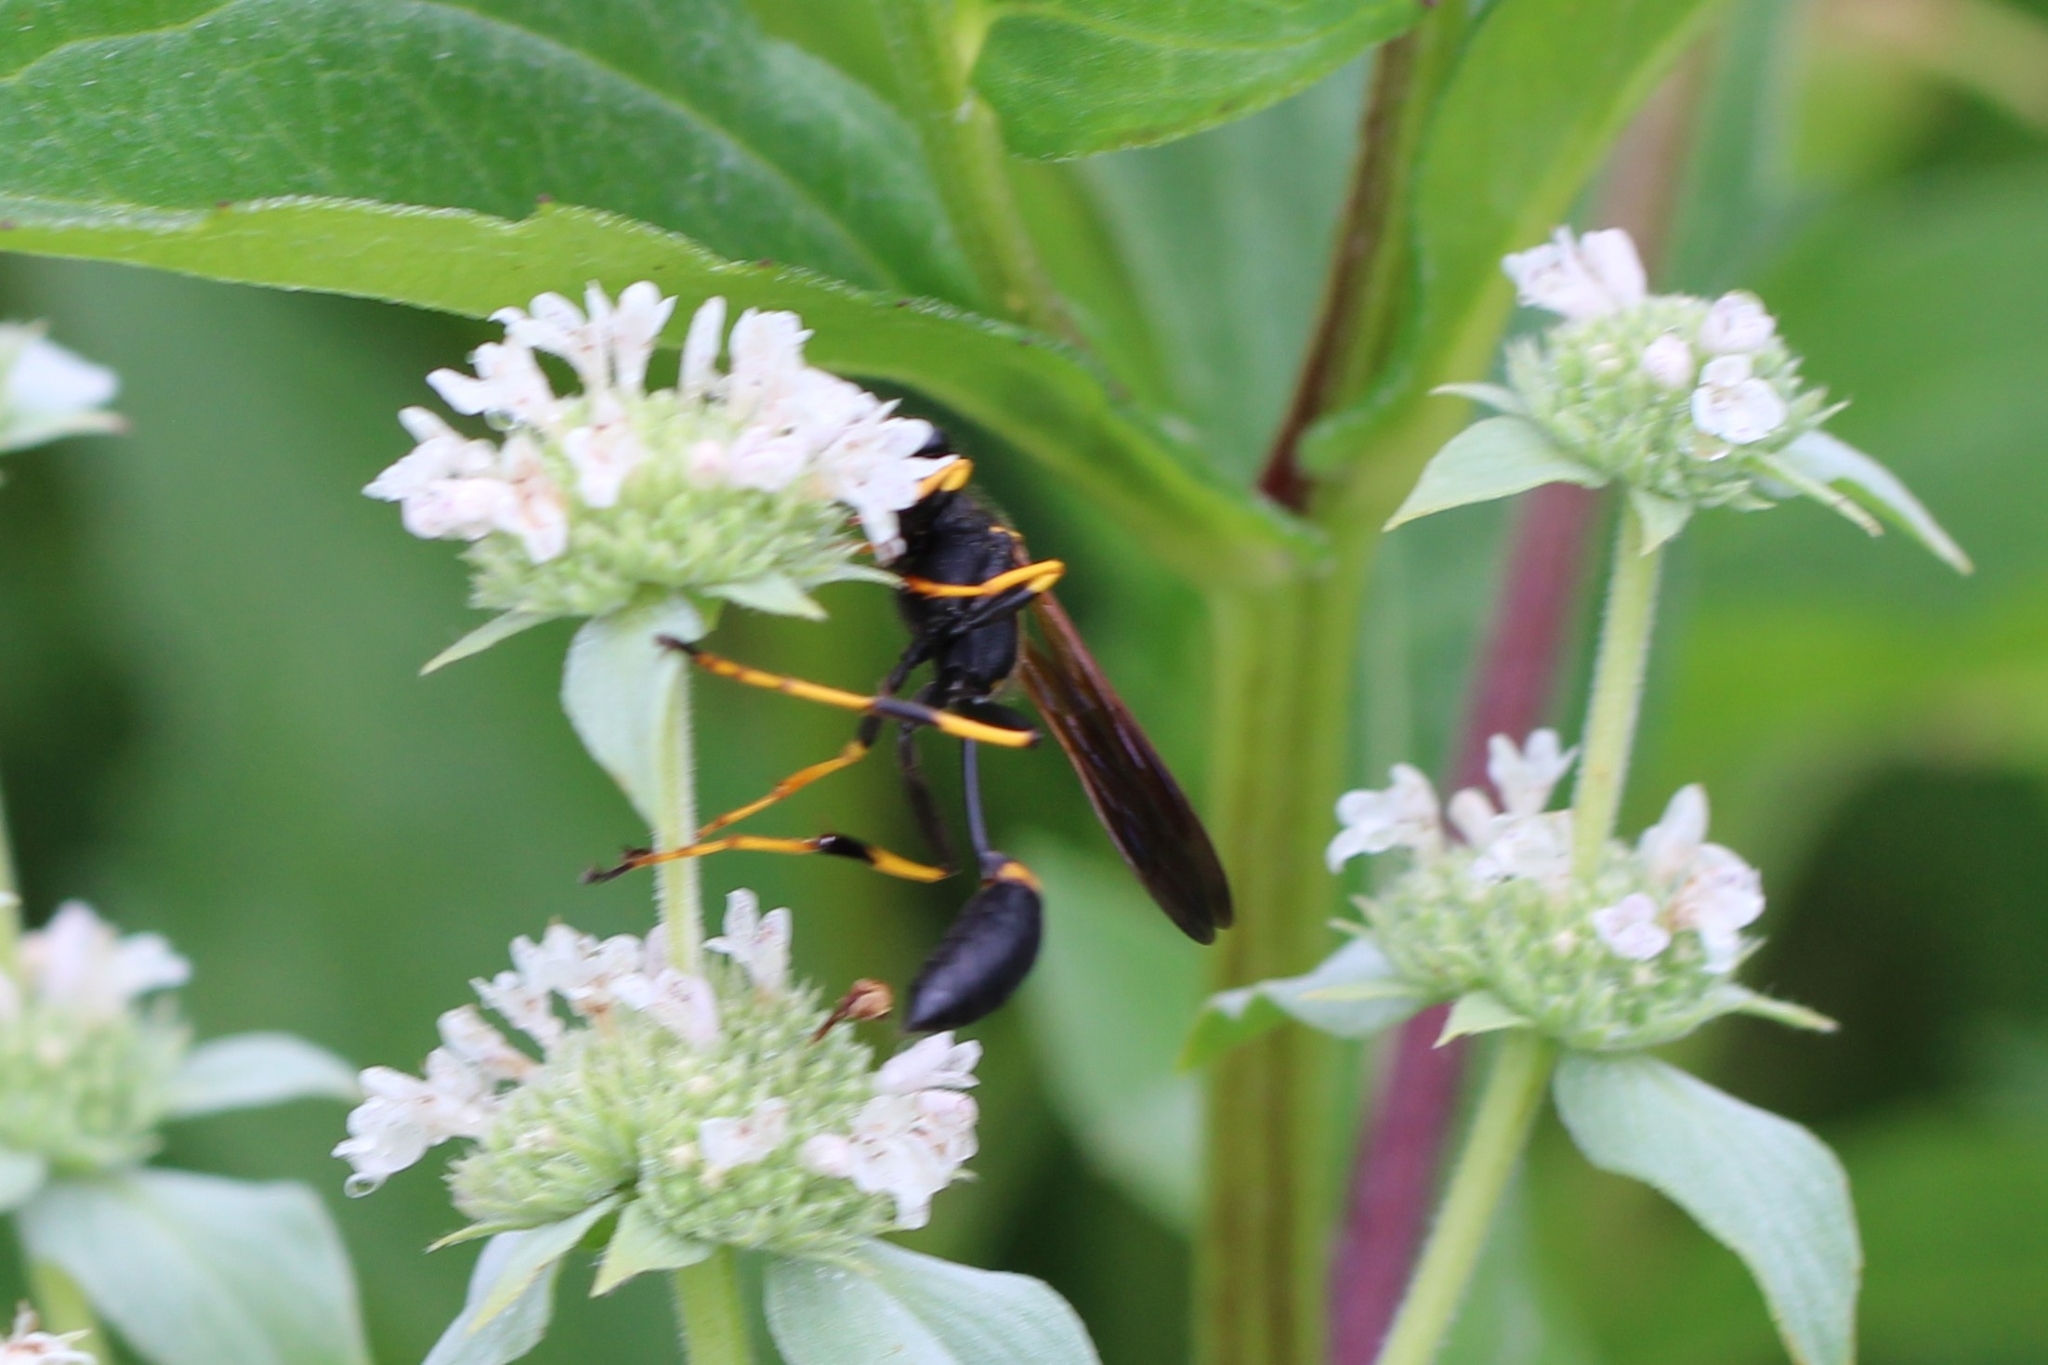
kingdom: Animalia
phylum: Arthropoda
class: Insecta
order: Hymenoptera
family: Sphecidae
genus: Sceliphron
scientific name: Sceliphron caementarium
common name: Mud dauber
